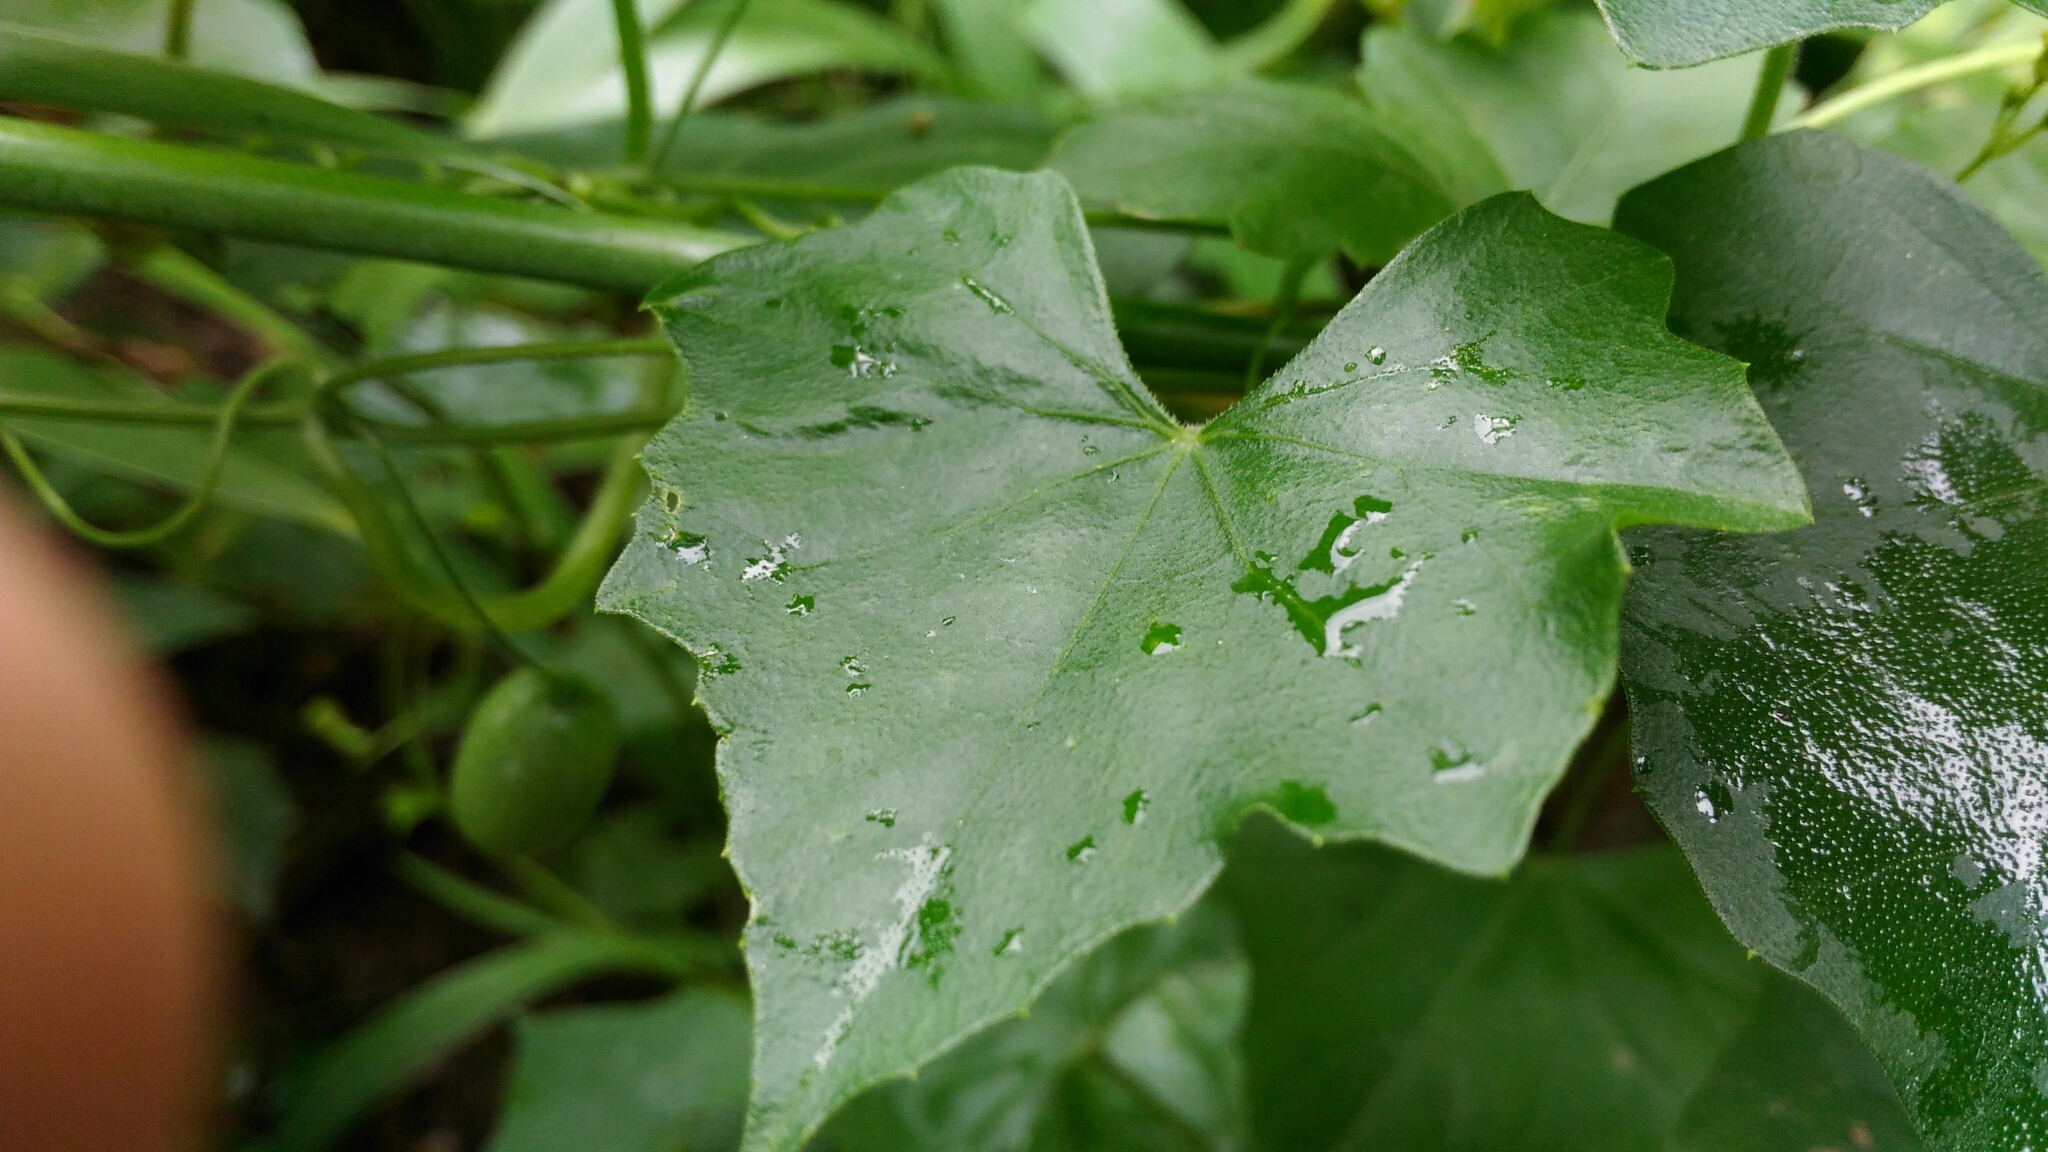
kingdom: Plantae
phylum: Tracheophyta
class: Magnoliopsida
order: Cucurbitales
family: Cucurbitaceae
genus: Melothria
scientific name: Melothria pendula
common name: Creeping-cucumber
